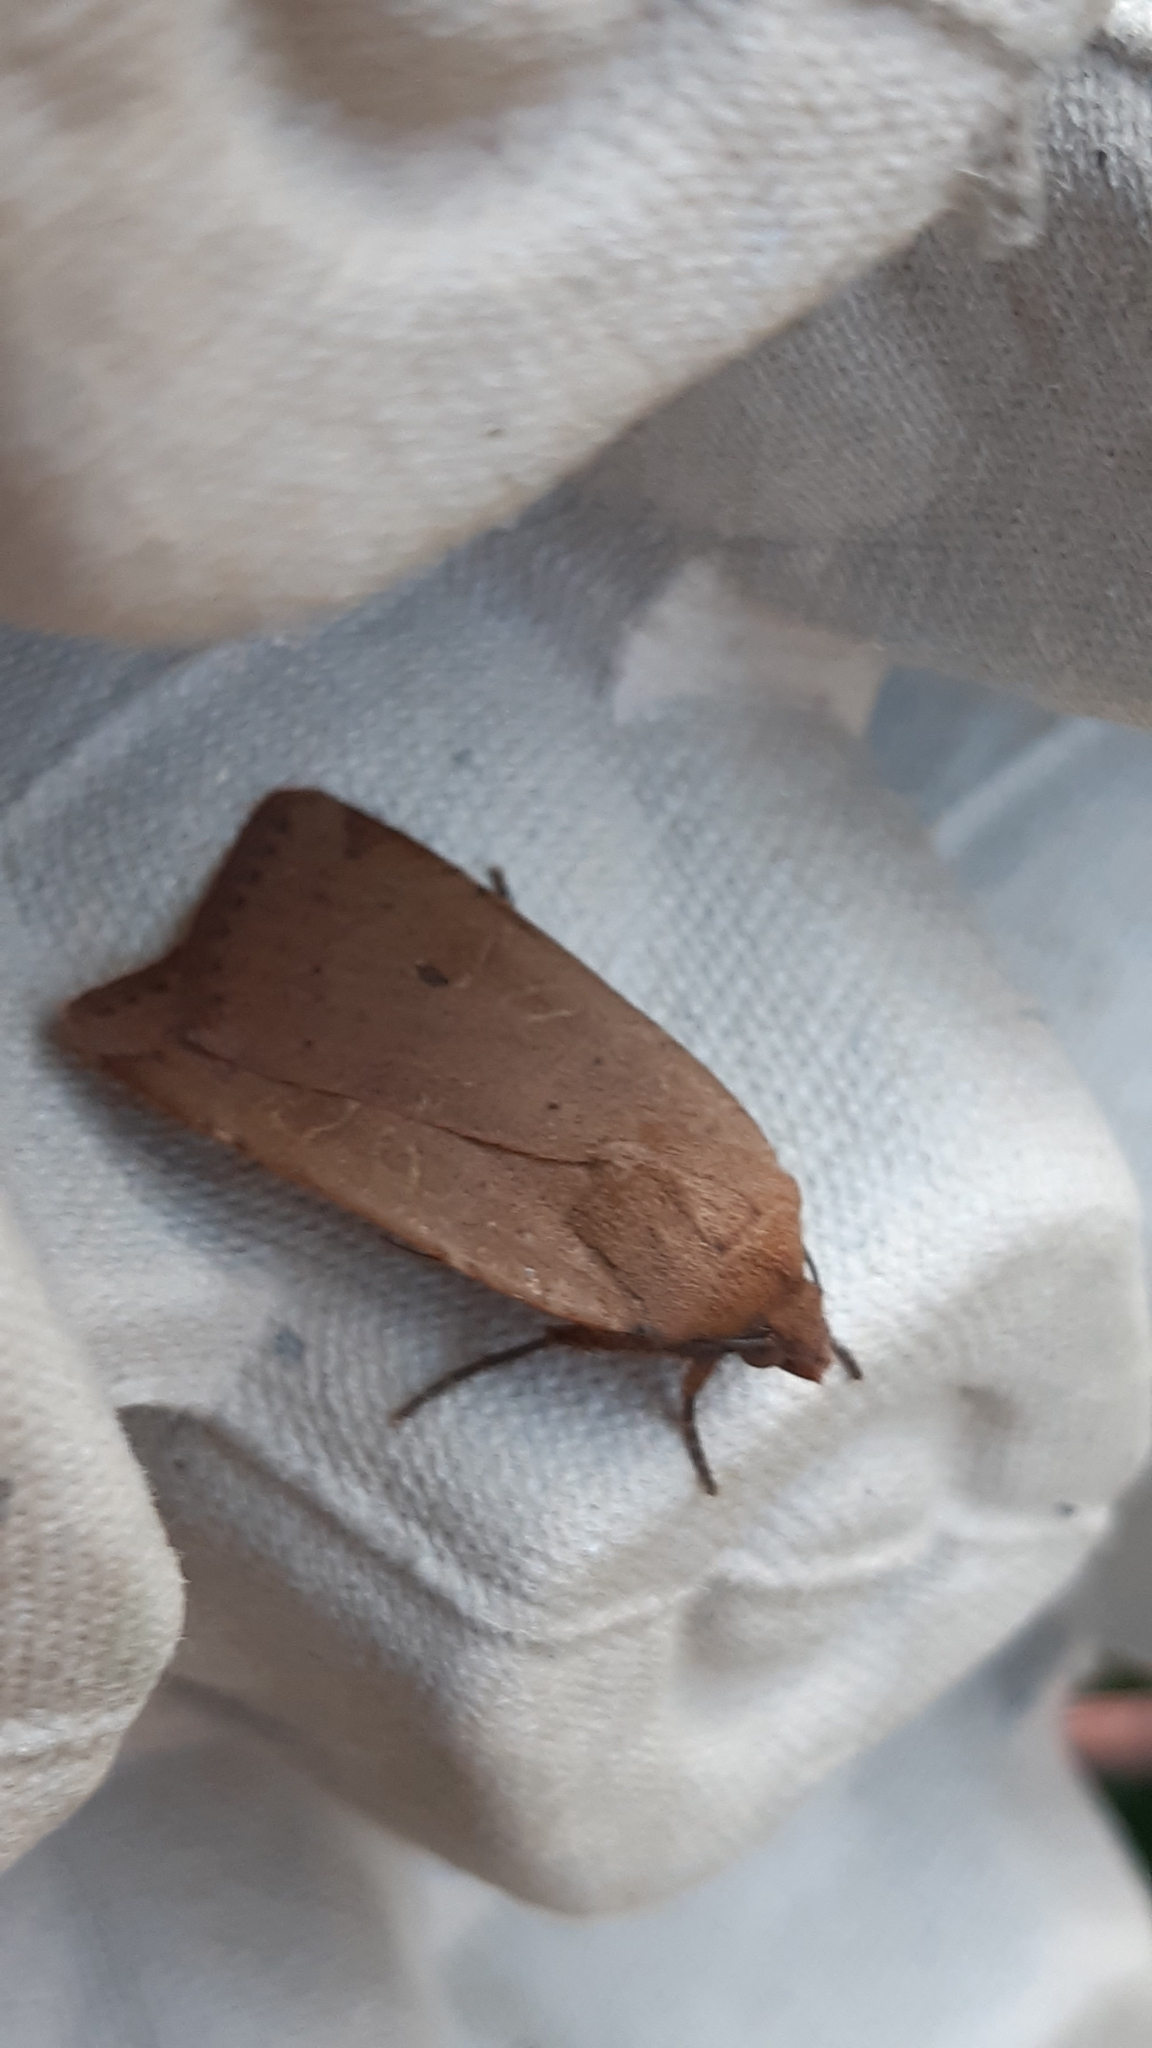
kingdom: Animalia
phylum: Arthropoda
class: Insecta
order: Lepidoptera
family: Noctuidae
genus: Noctua
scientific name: Noctua comes
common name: Lesser yellow underwing
